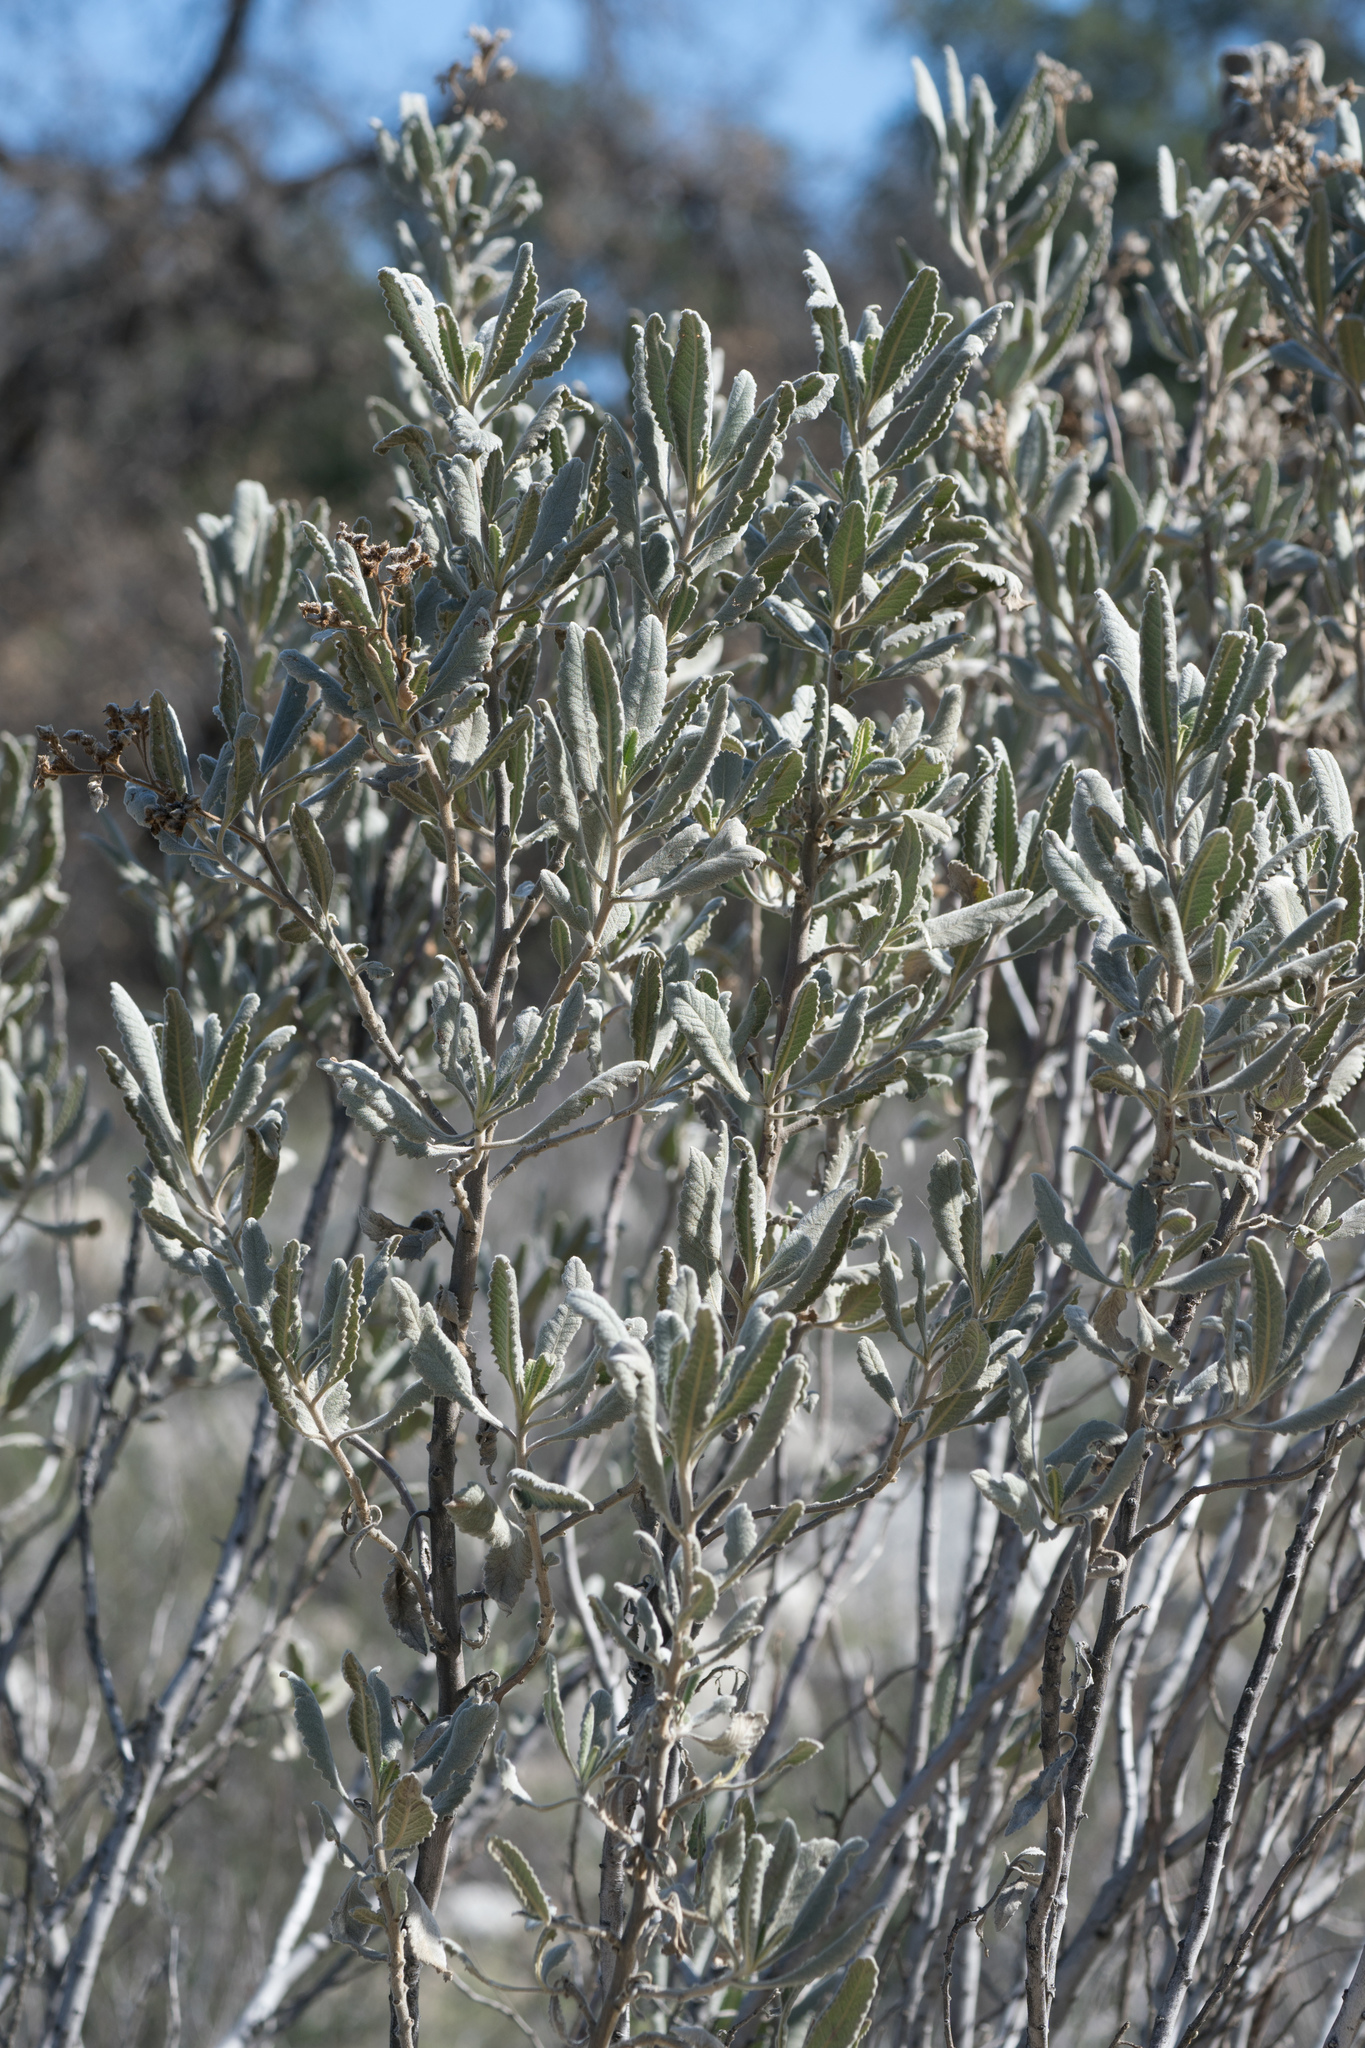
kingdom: Plantae
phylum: Tracheophyta
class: Magnoliopsida
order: Boraginales
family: Namaceae
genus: Eriodictyon
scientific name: Eriodictyon crassifolium
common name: Thick-leaf yerba-santa
